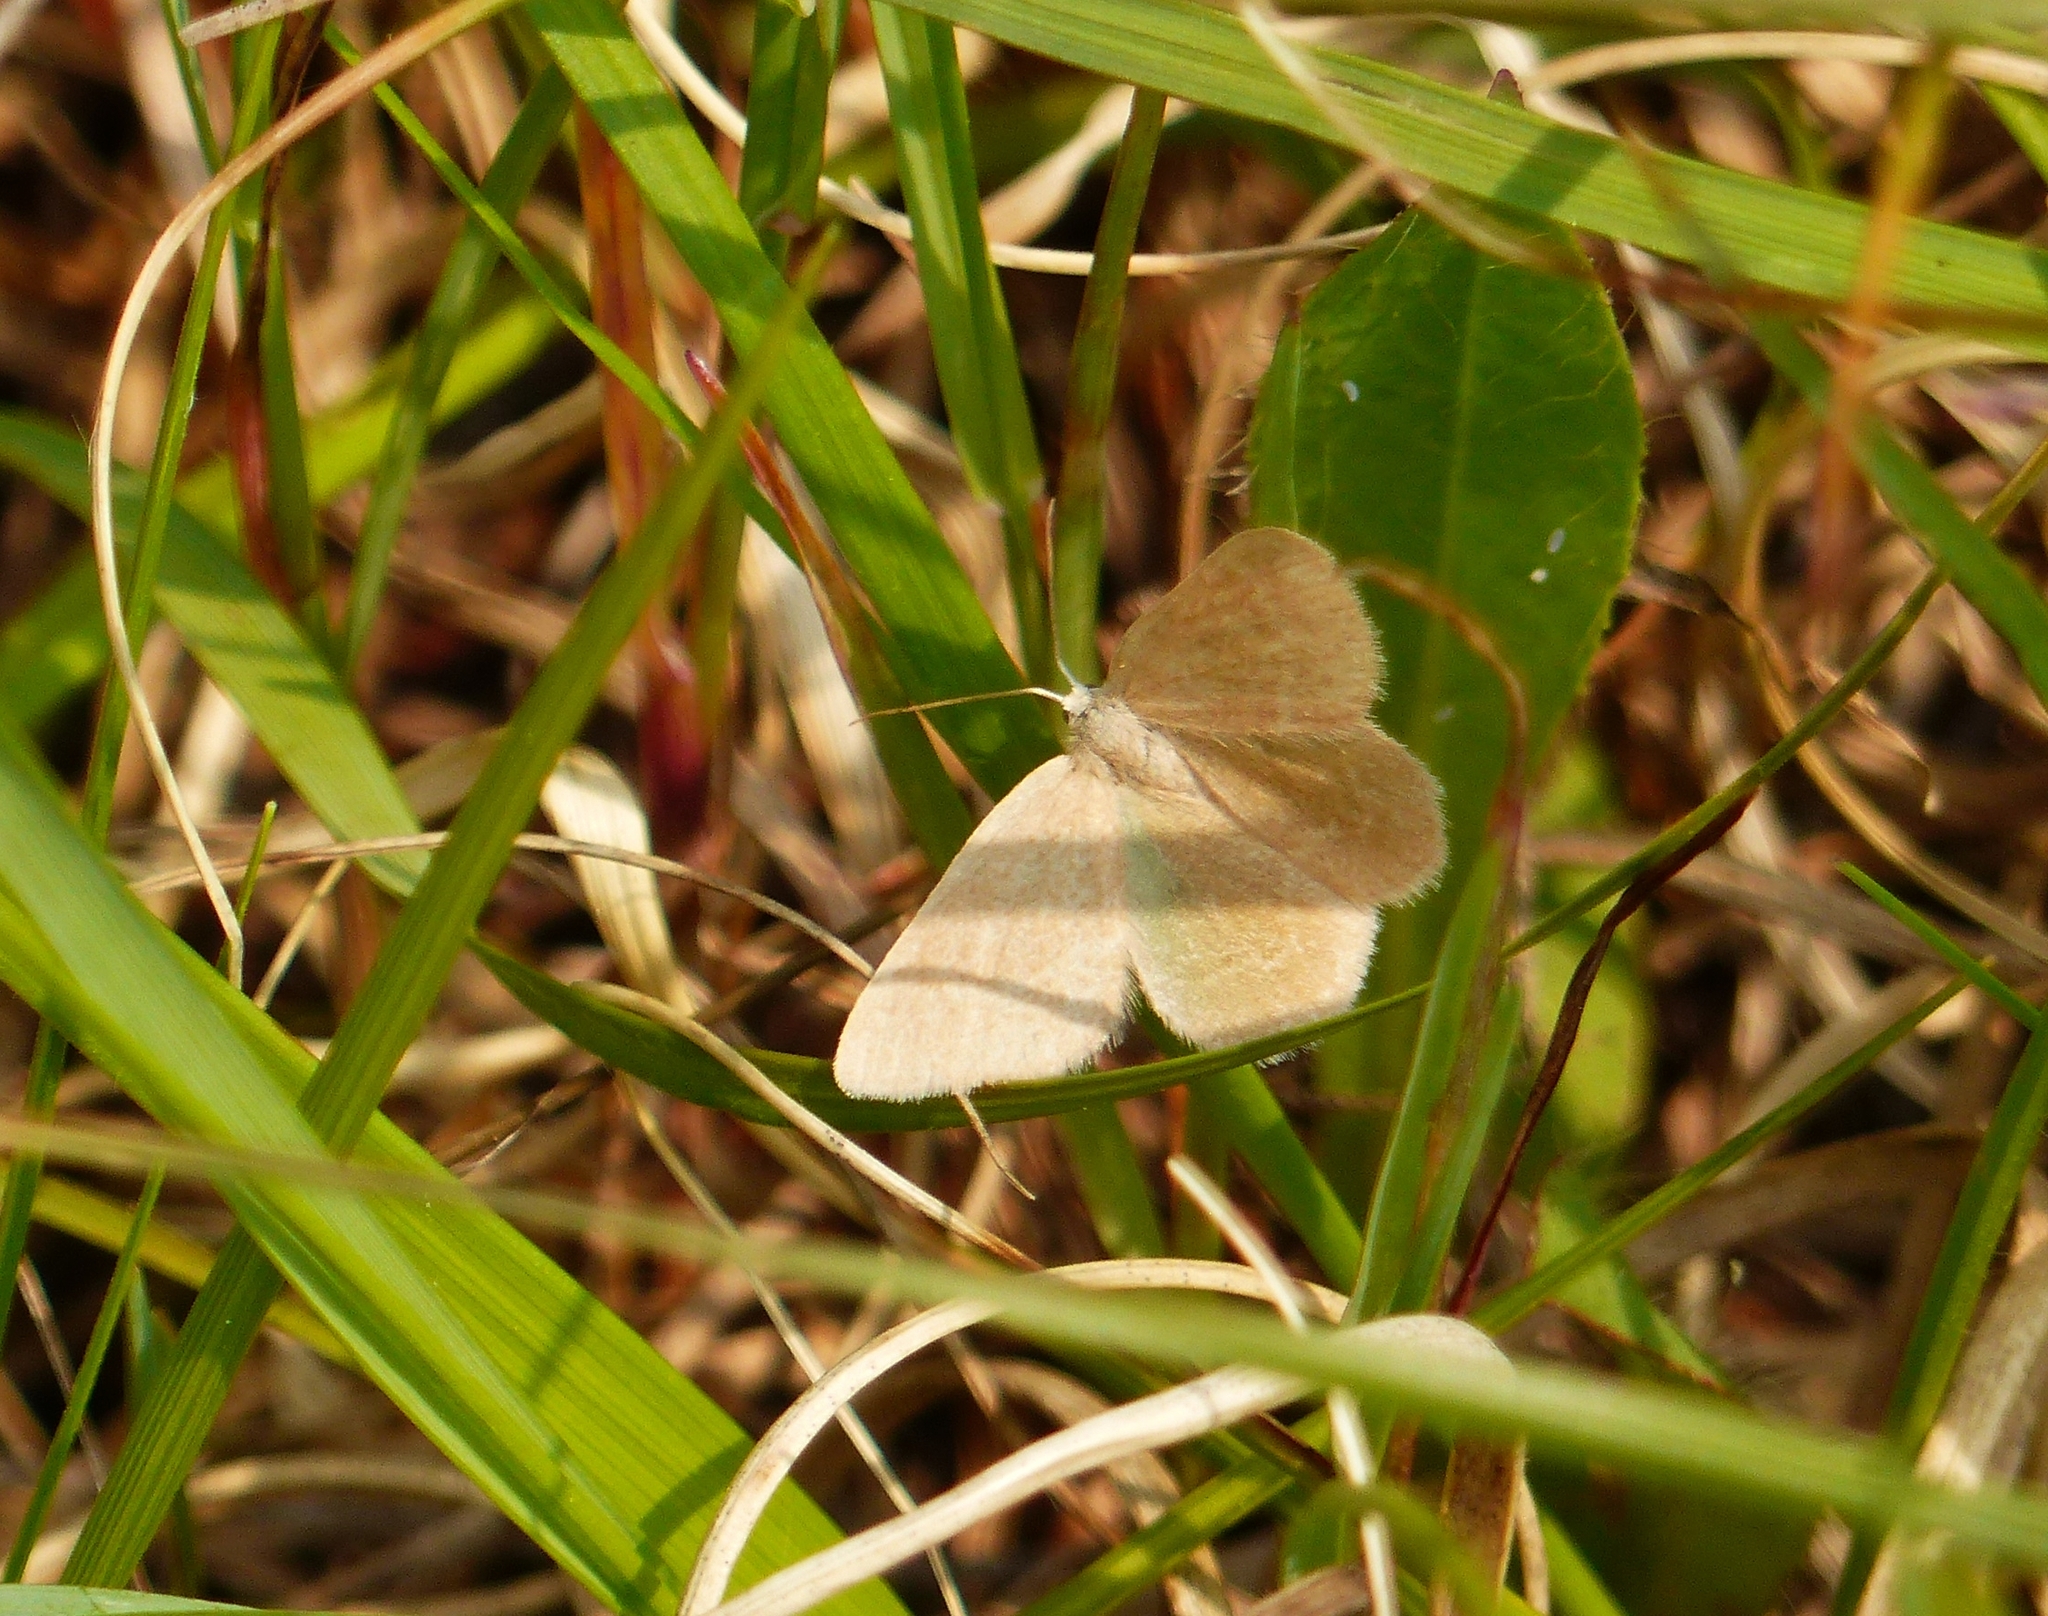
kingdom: Animalia
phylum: Arthropoda
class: Insecta
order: Lepidoptera
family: Geometridae
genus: Mesothea
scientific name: Mesothea incertata
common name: Day emerald moth
